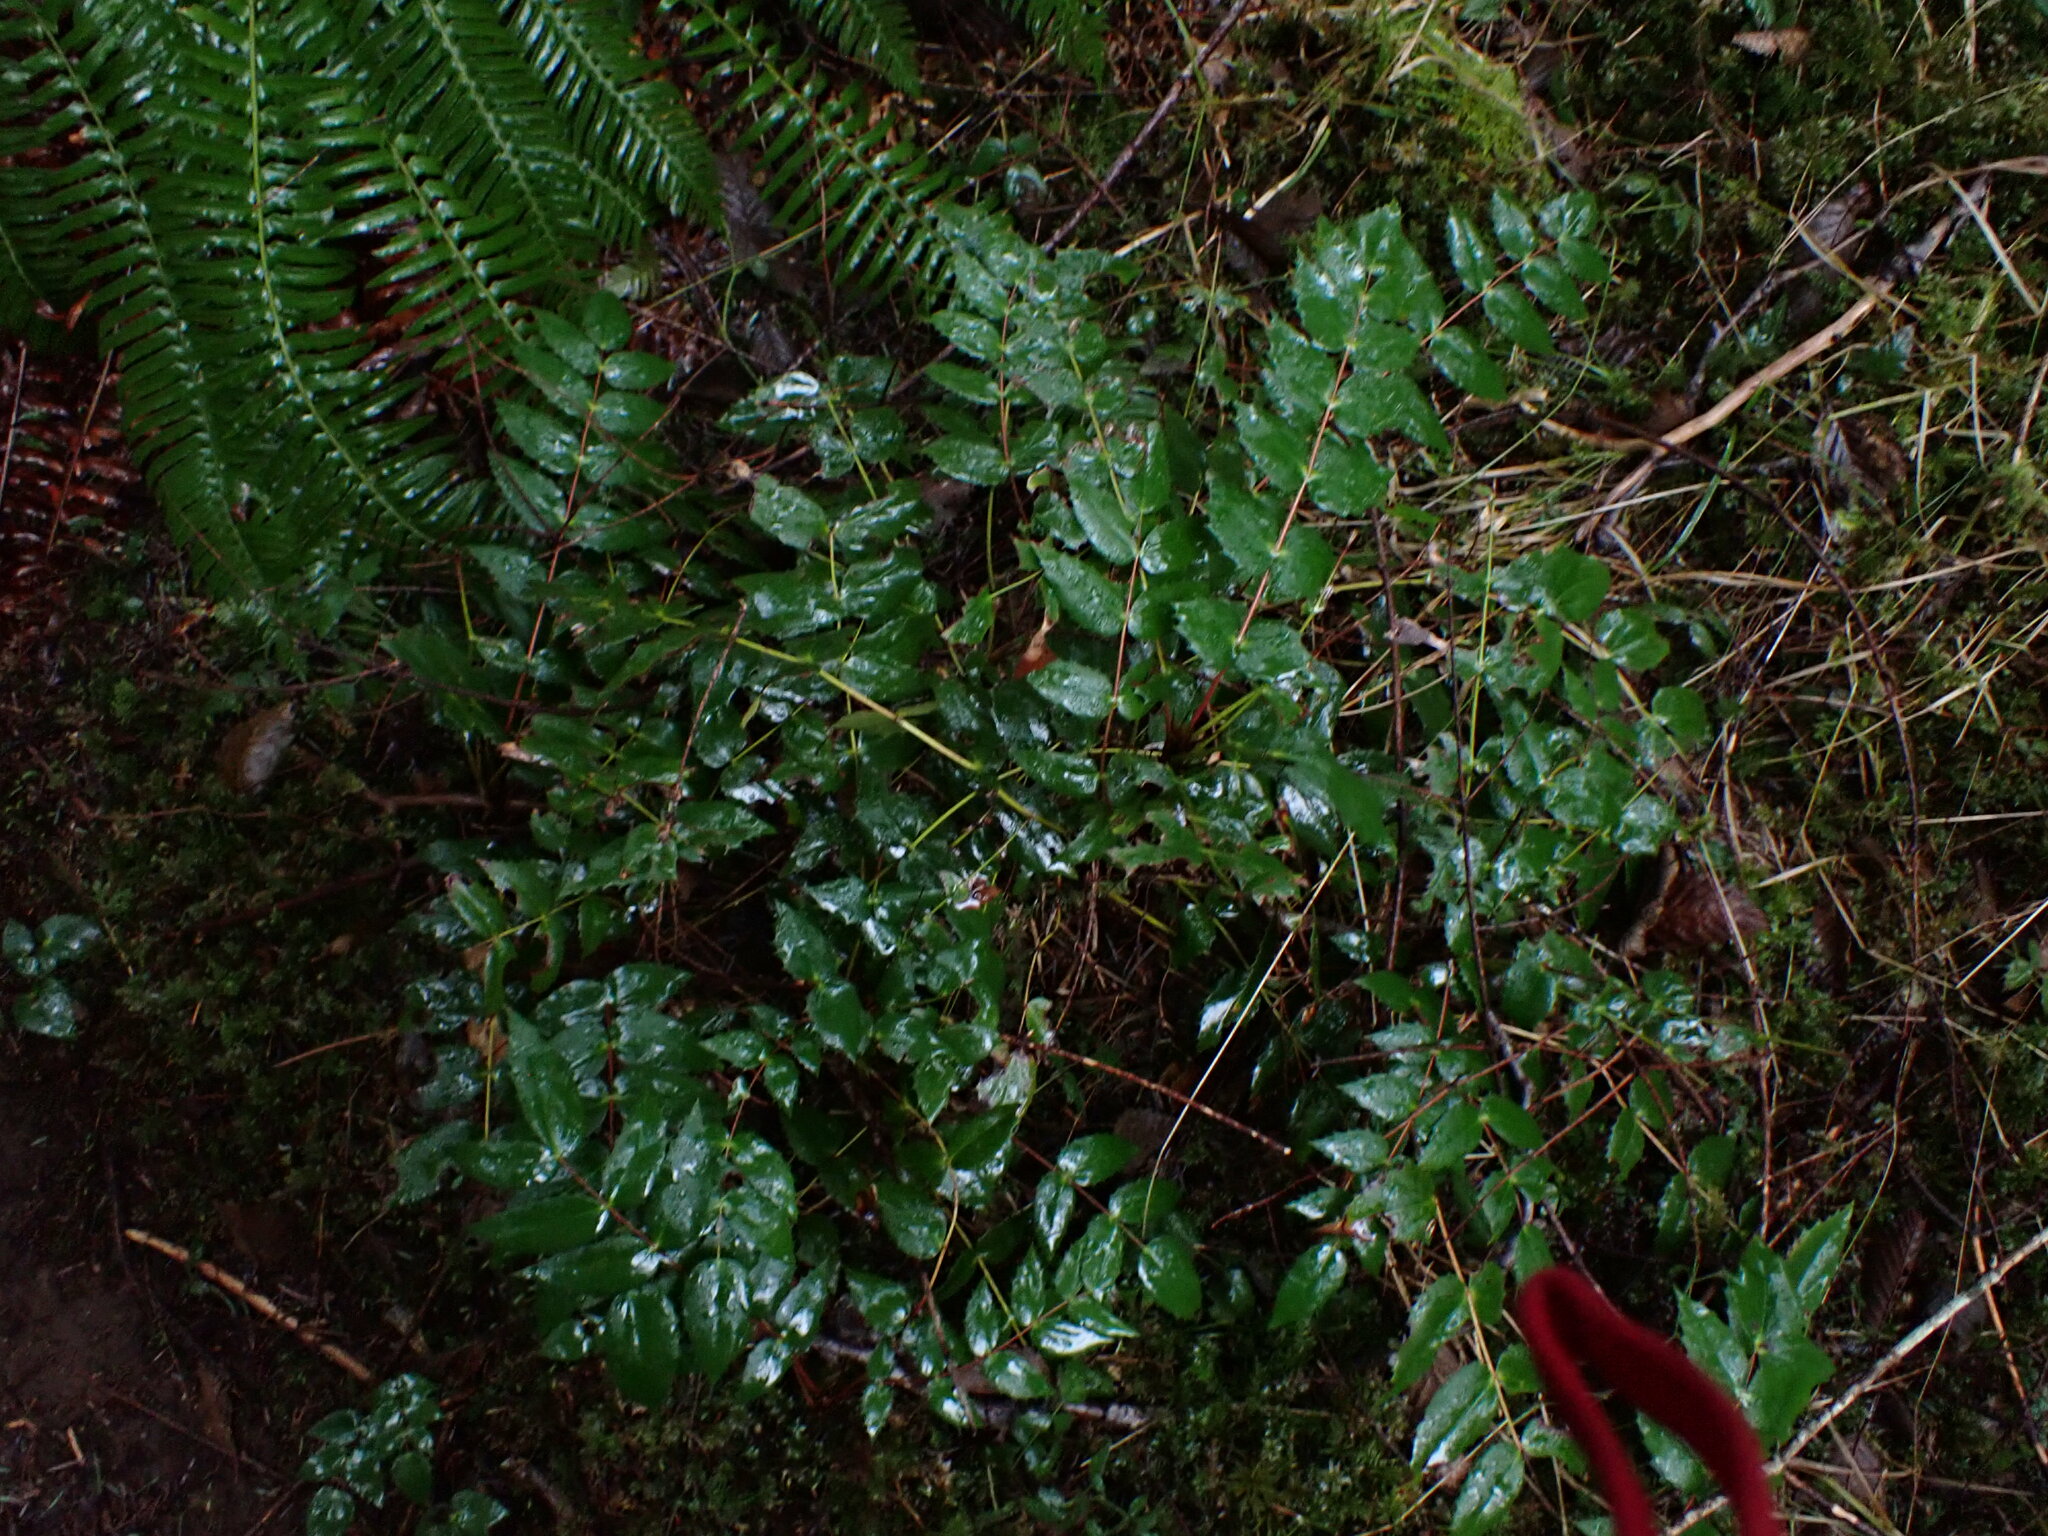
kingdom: Plantae
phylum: Tracheophyta
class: Magnoliopsida
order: Ranunculales
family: Berberidaceae
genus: Mahonia
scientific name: Mahonia nervosa
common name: Cascade oregon-grape
